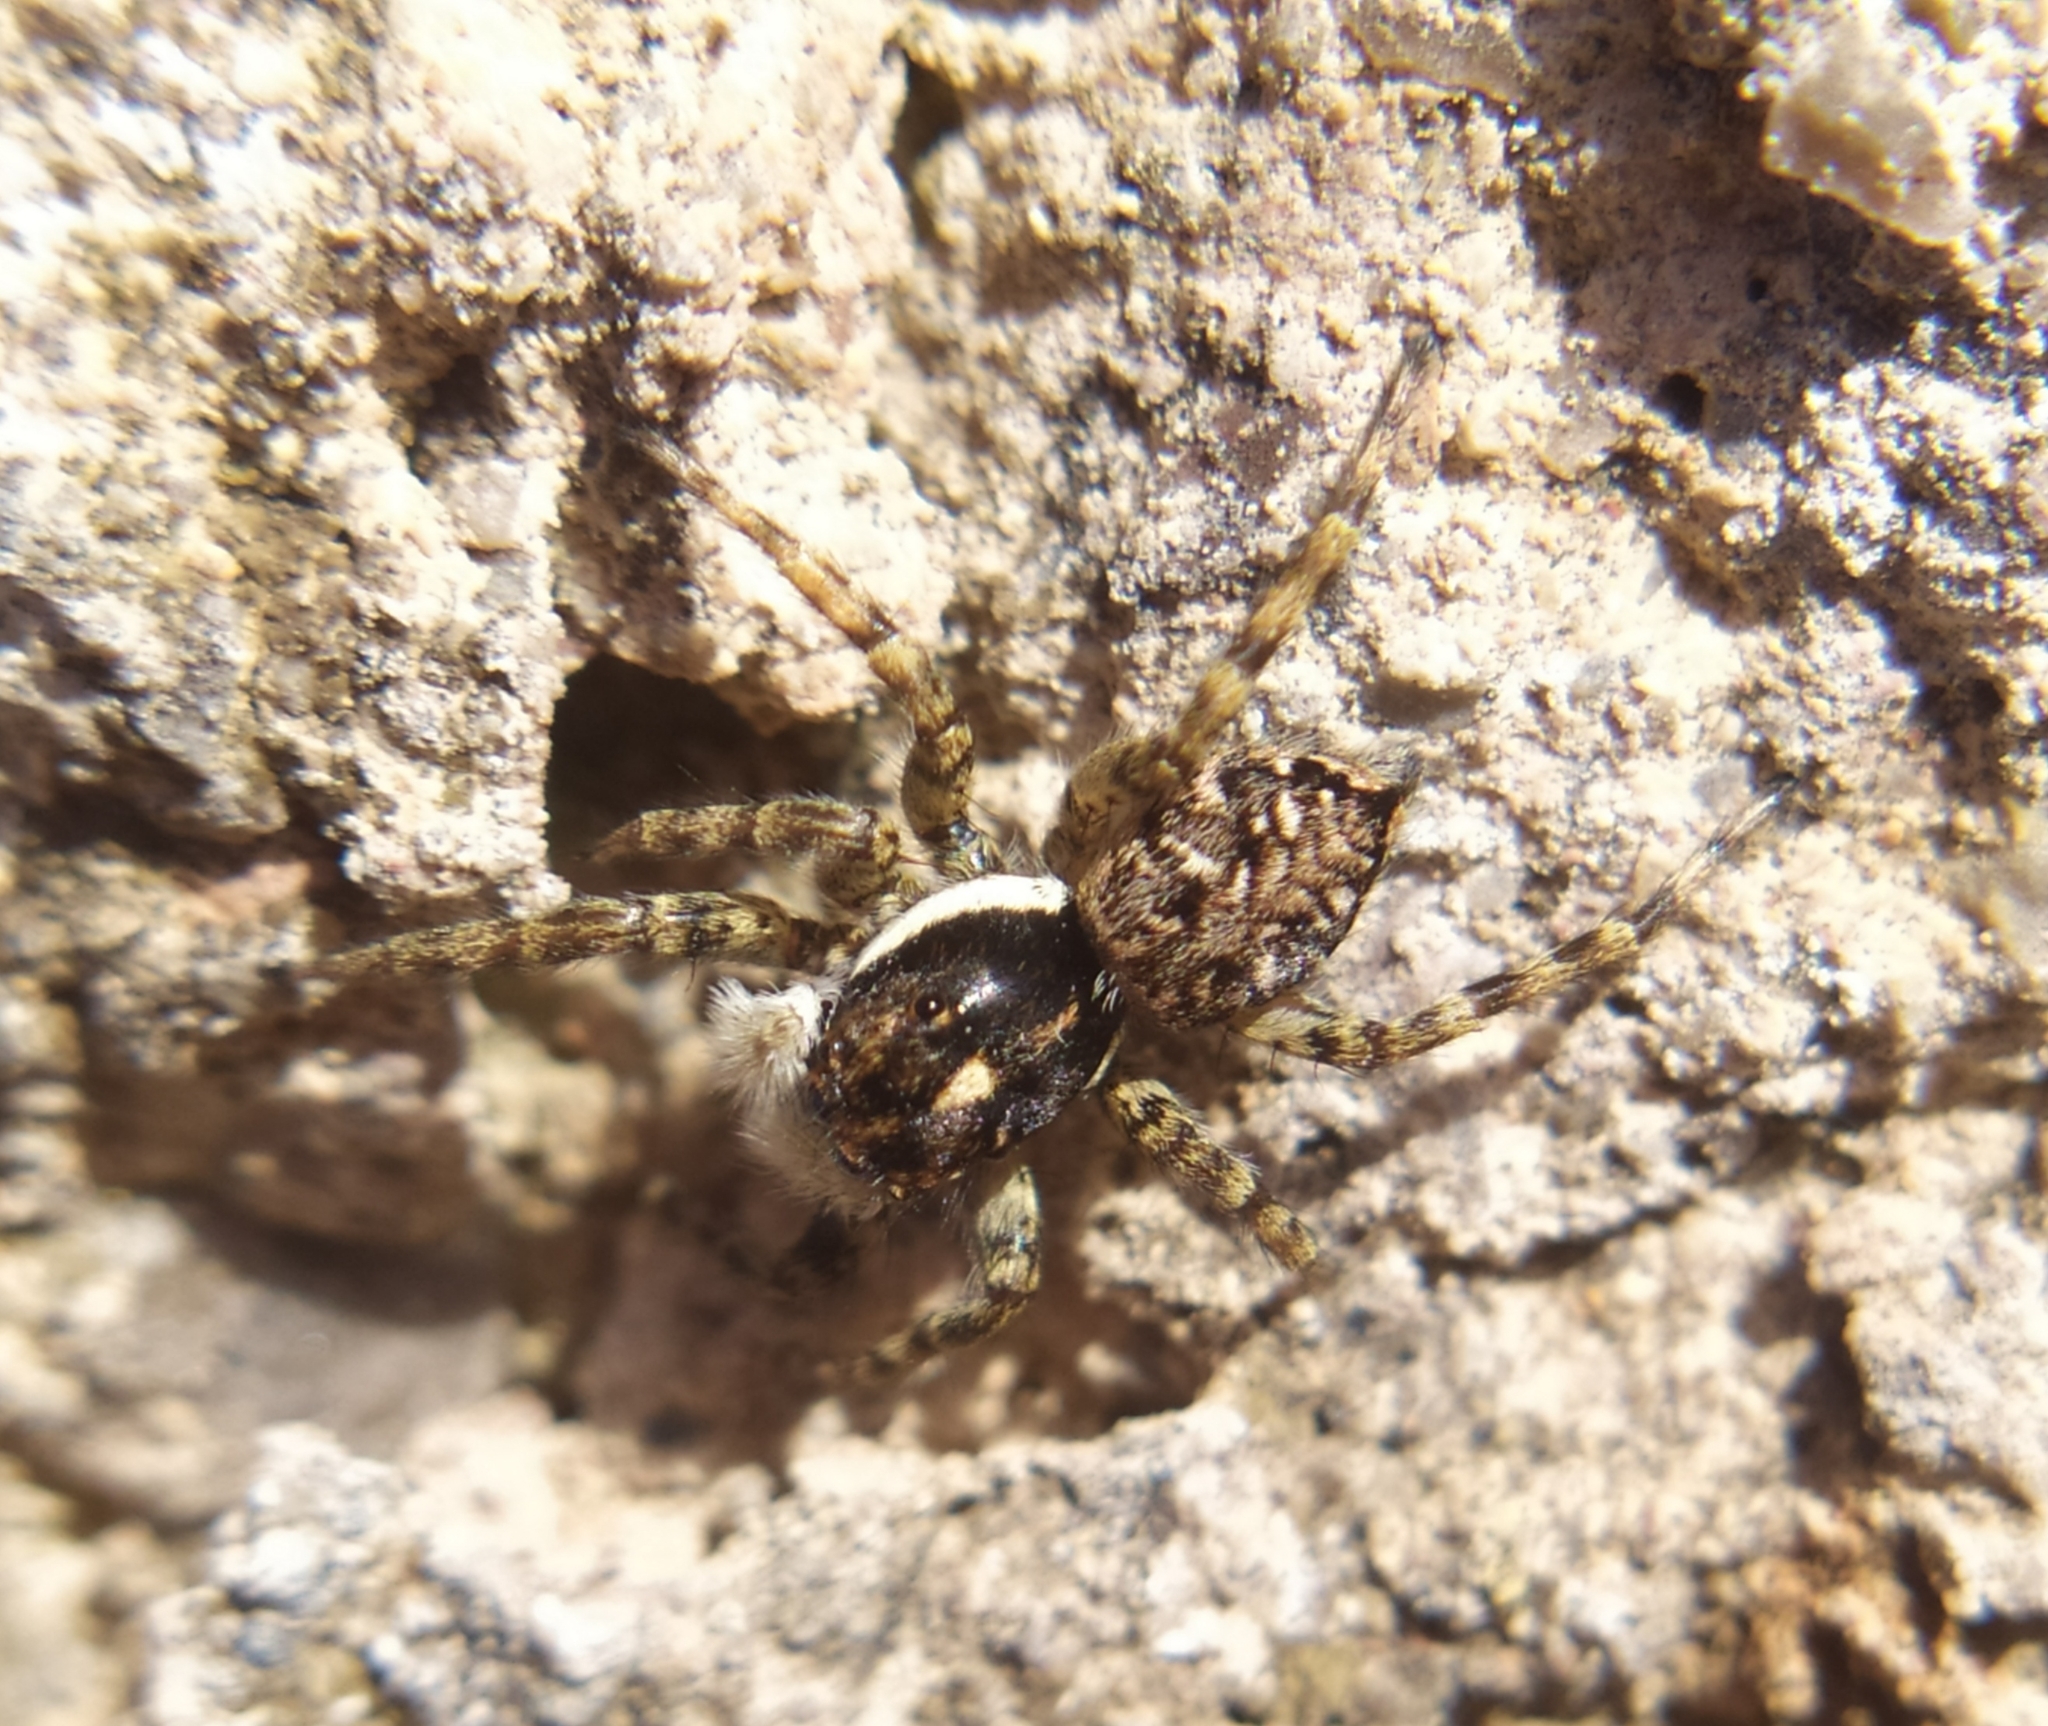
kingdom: Animalia
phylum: Arthropoda
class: Arachnida
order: Araneae
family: Salticidae
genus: Menemerus
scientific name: Menemerus semilimbatus
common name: Jumping spider
